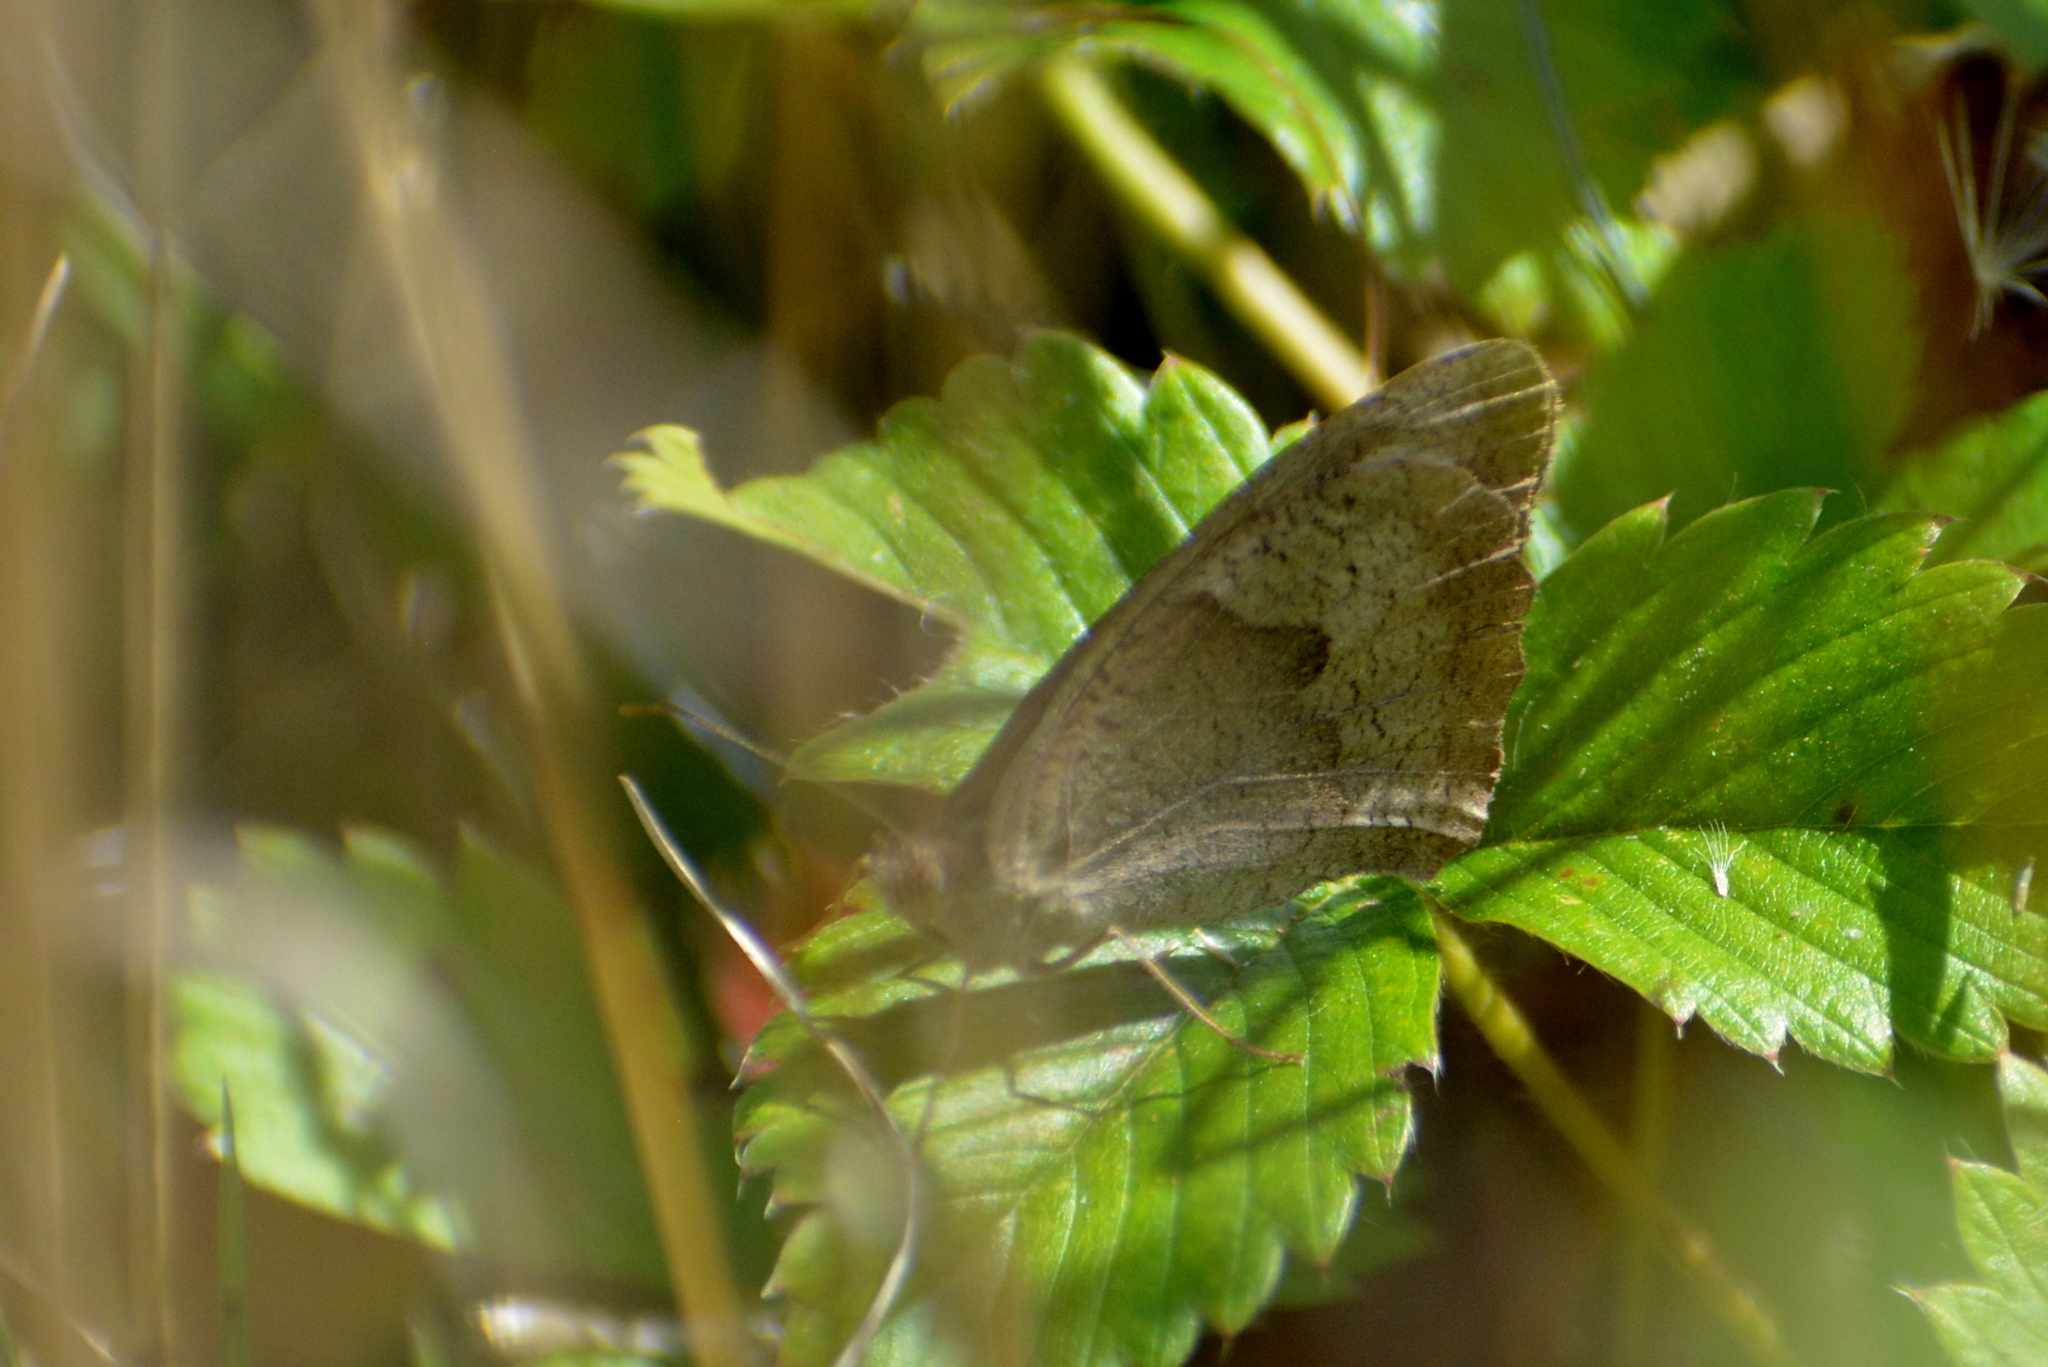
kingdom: Animalia
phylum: Arthropoda
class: Insecta
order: Lepidoptera
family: Nymphalidae
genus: Maniola
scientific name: Maniola jurtina
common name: Meadow brown
